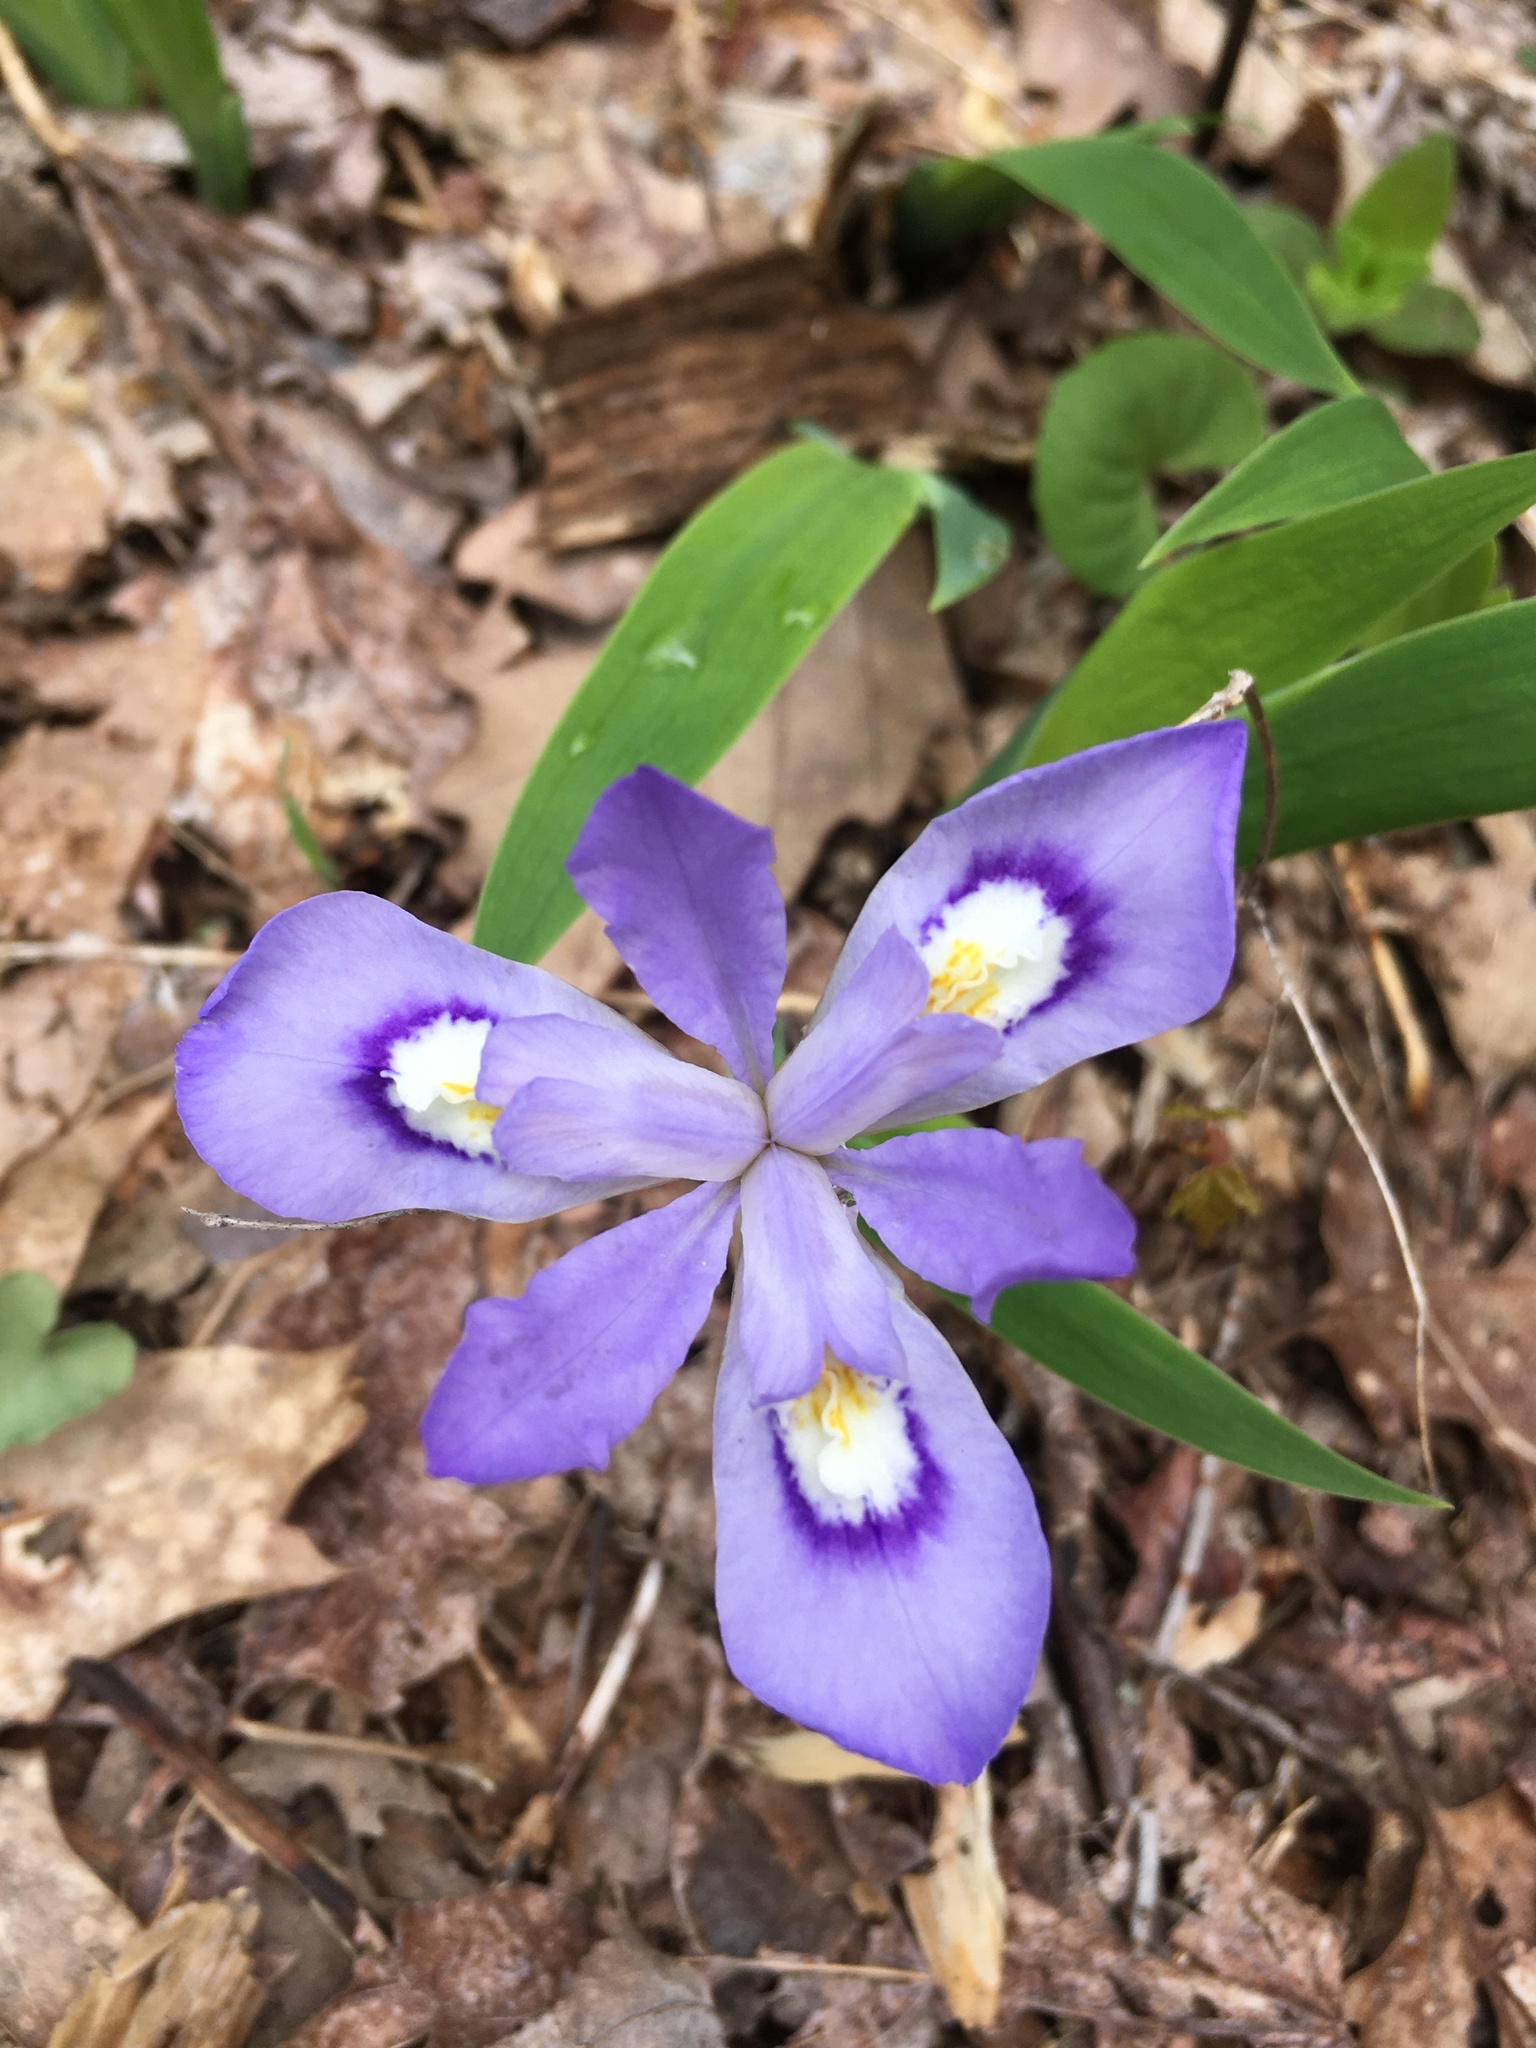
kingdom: Plantae
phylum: Tracheophyta
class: Liliopsida
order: Asparagales
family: Iridaceae
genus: Iris
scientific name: Iris cristata
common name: Crested iris
